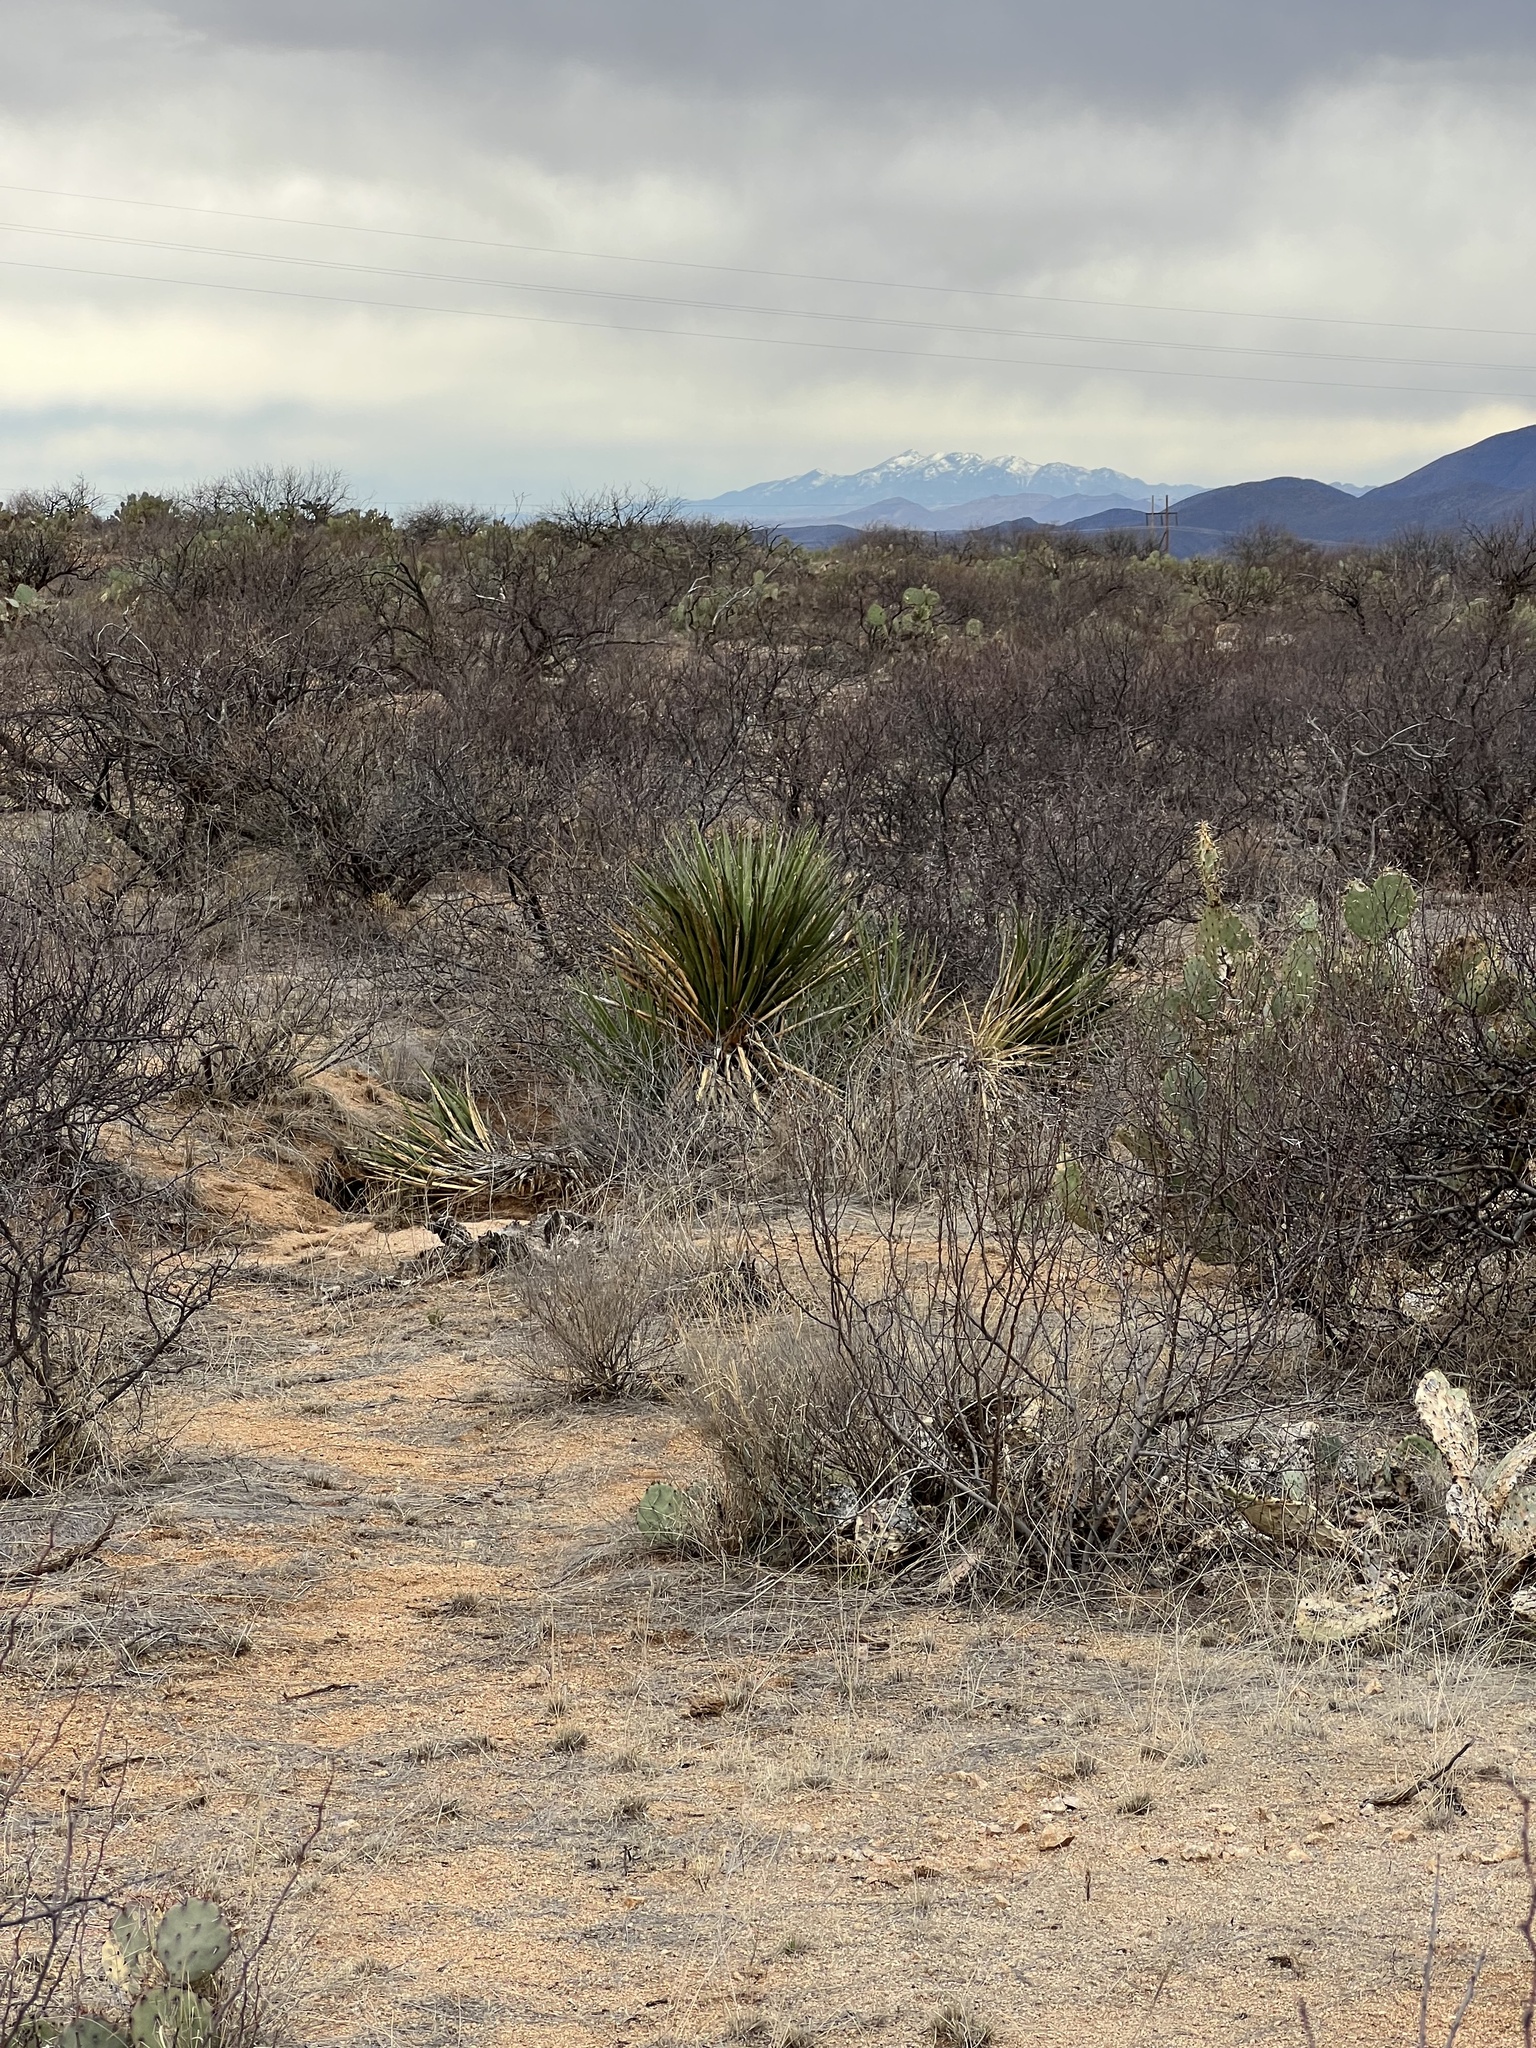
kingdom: Plantae
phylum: Tracheophyta
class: Liliopsida
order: Asparagales
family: Asparagaceae
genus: Yucca
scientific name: Yucca baccata
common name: Banana yucca
